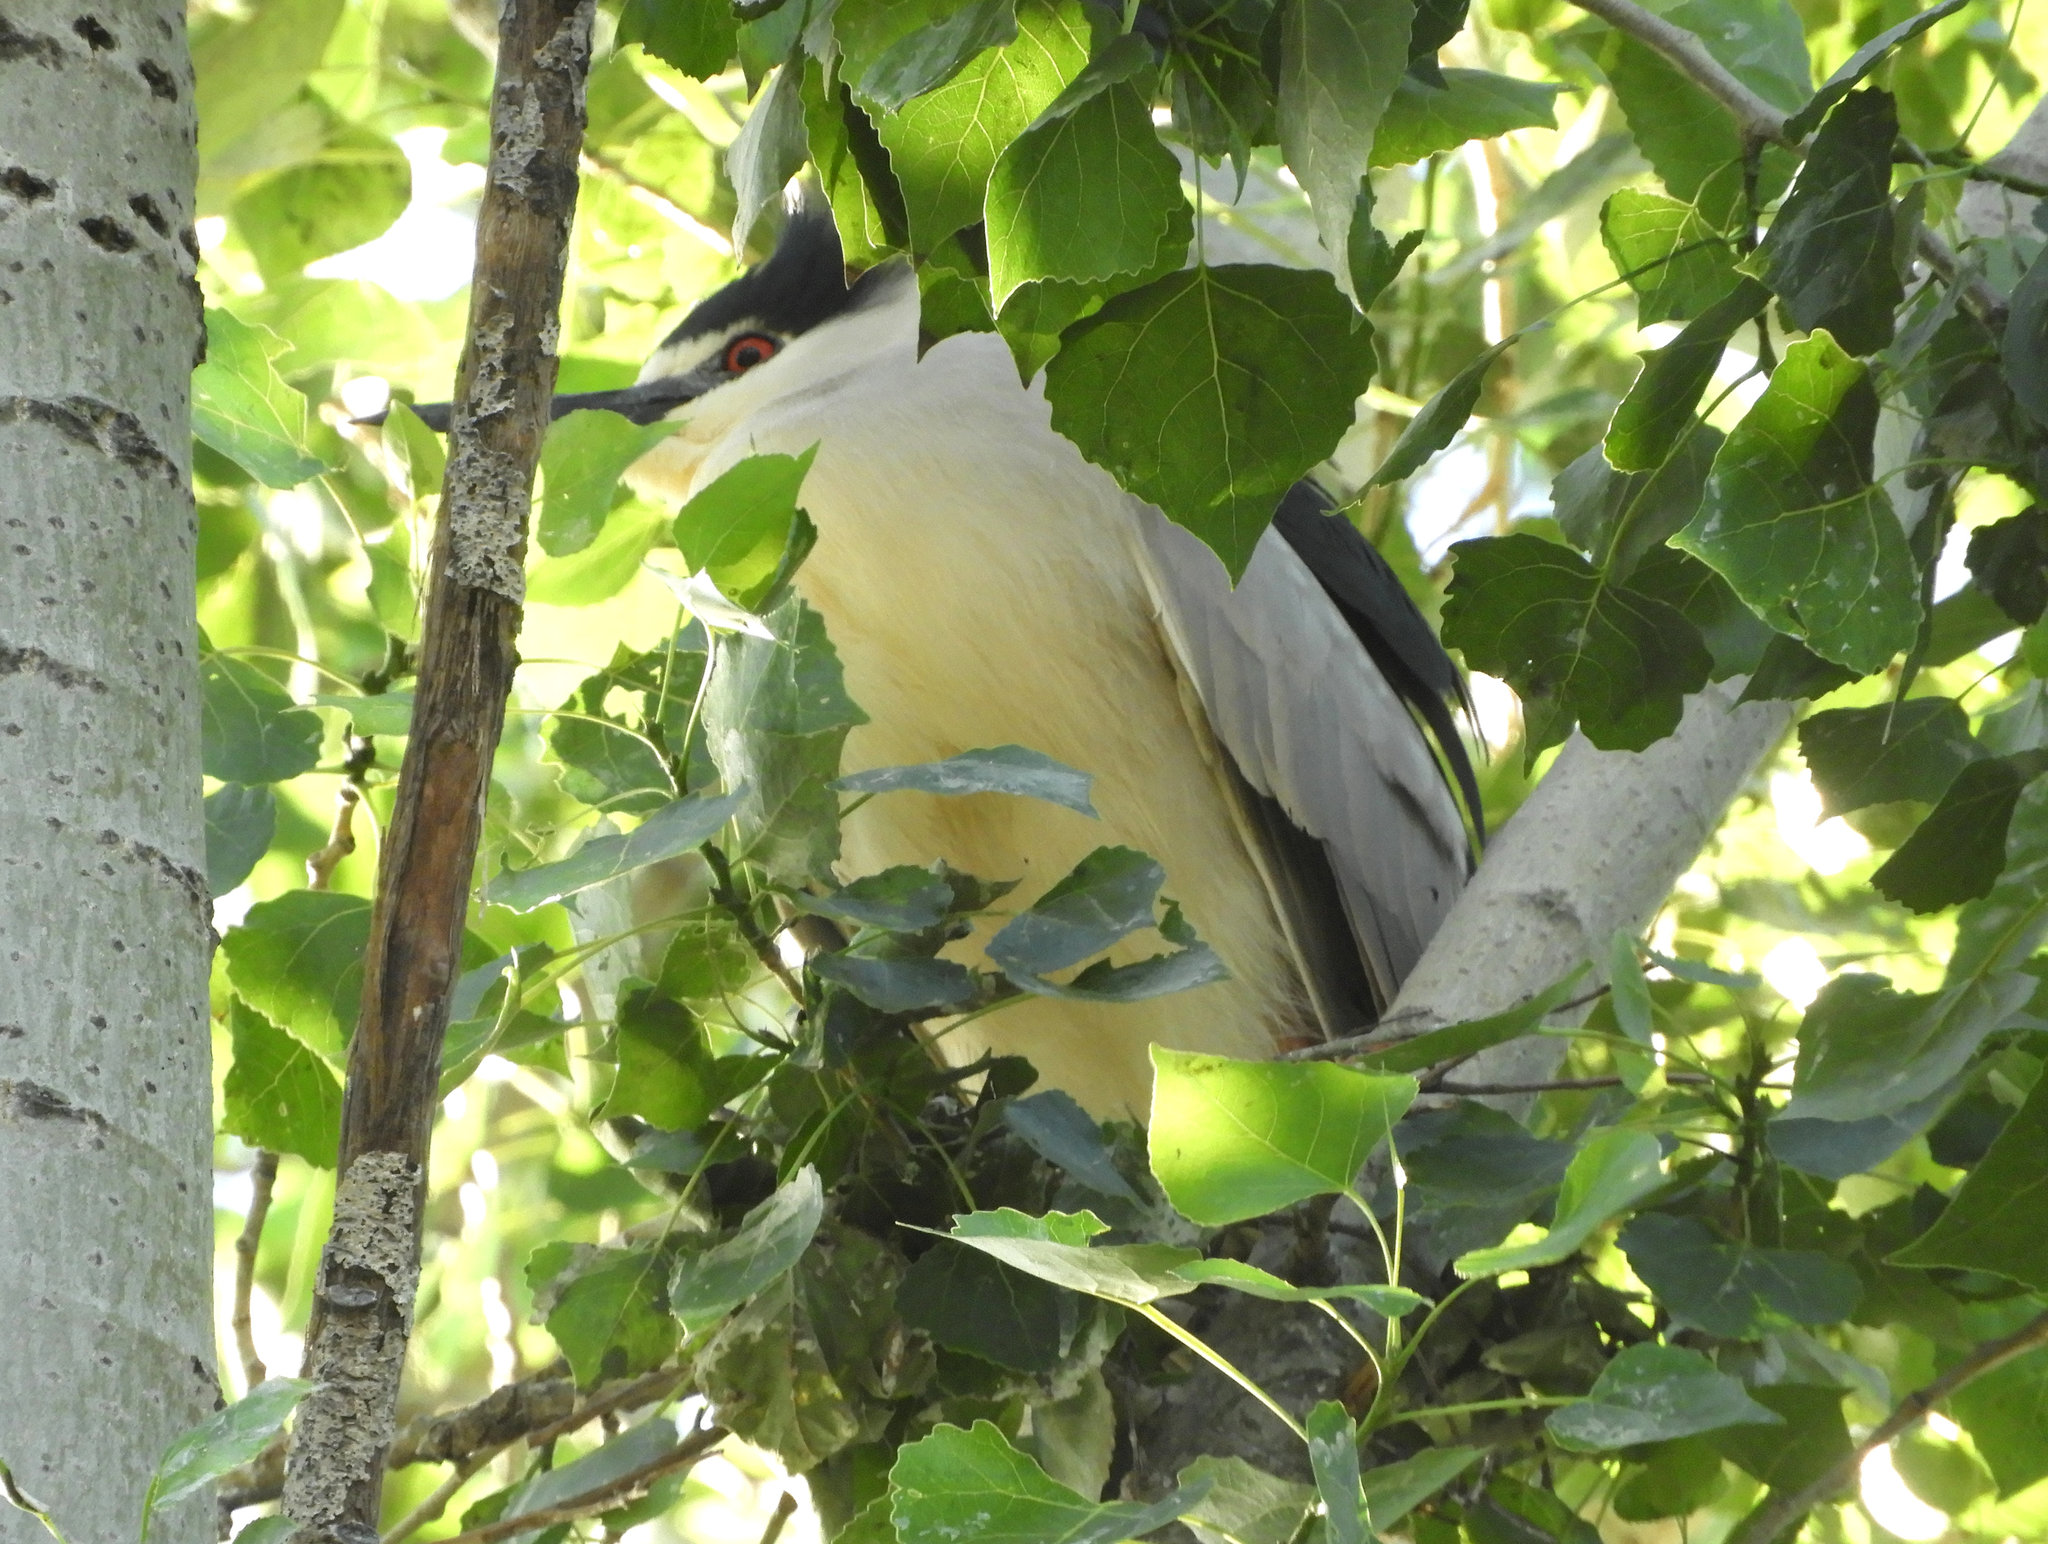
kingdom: Animalia
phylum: Chordata
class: Aves
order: Pelecaniformes
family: Ardeidae
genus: Nycticorax
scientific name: Nycticorax nycticorax
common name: Black-crowned night heron
